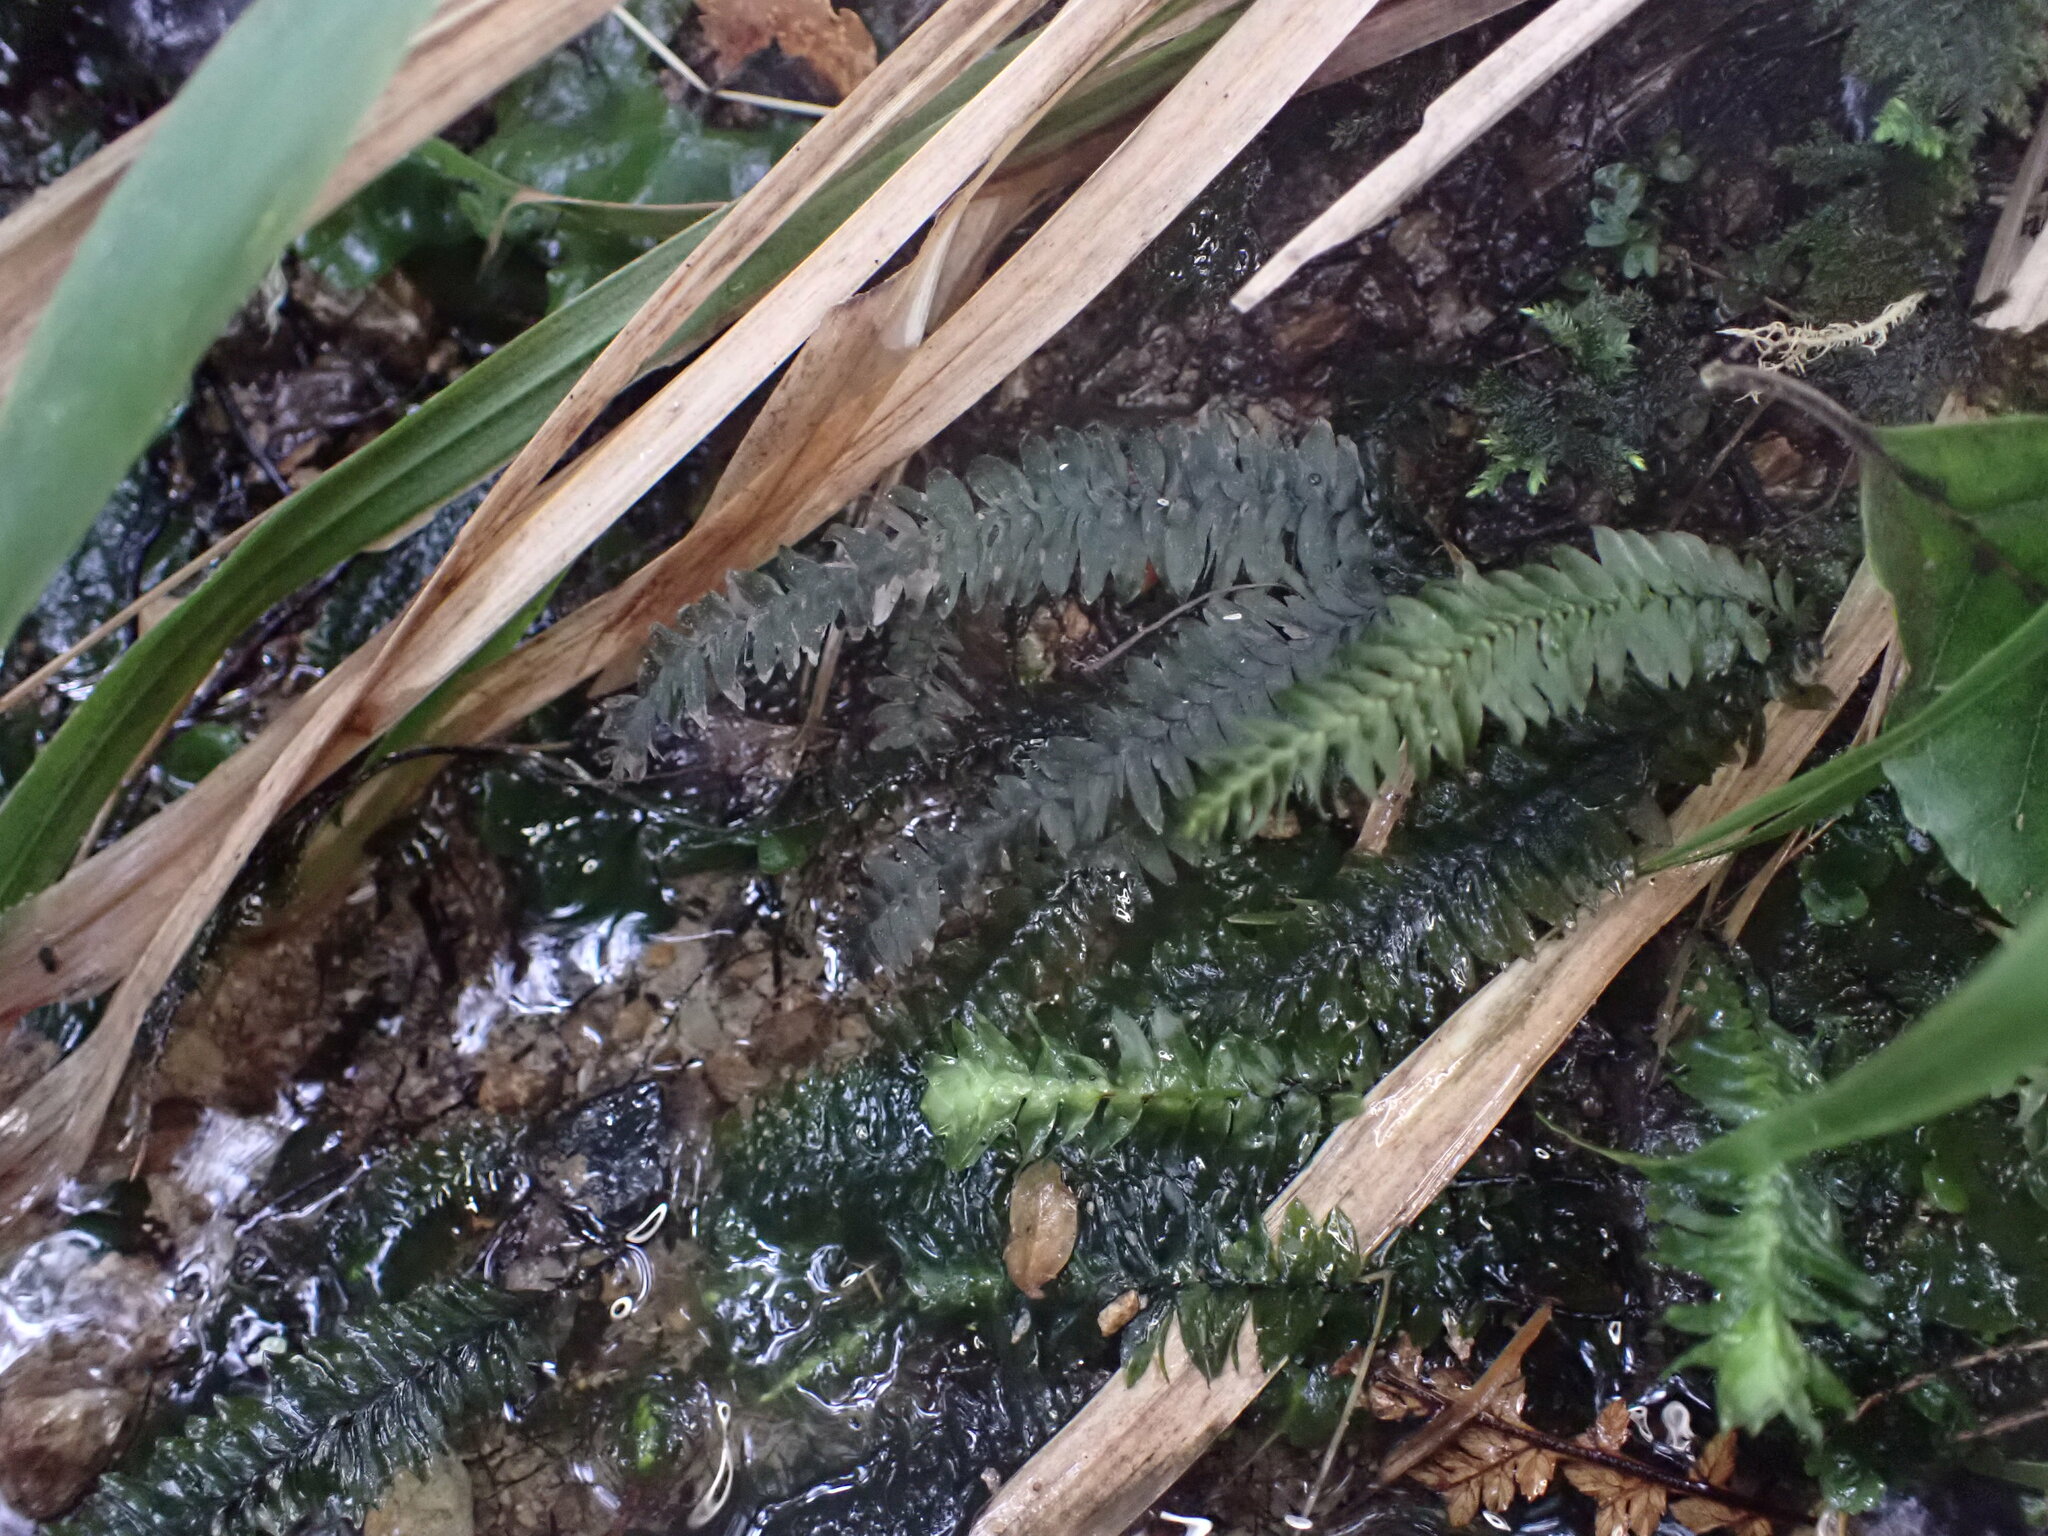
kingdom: Plantae
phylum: Bryophyta
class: Bryopsida
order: Hypopterygiales
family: Hypopterygiaceae
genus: Cyathophorum
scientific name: Cyathophorum bulbosum
